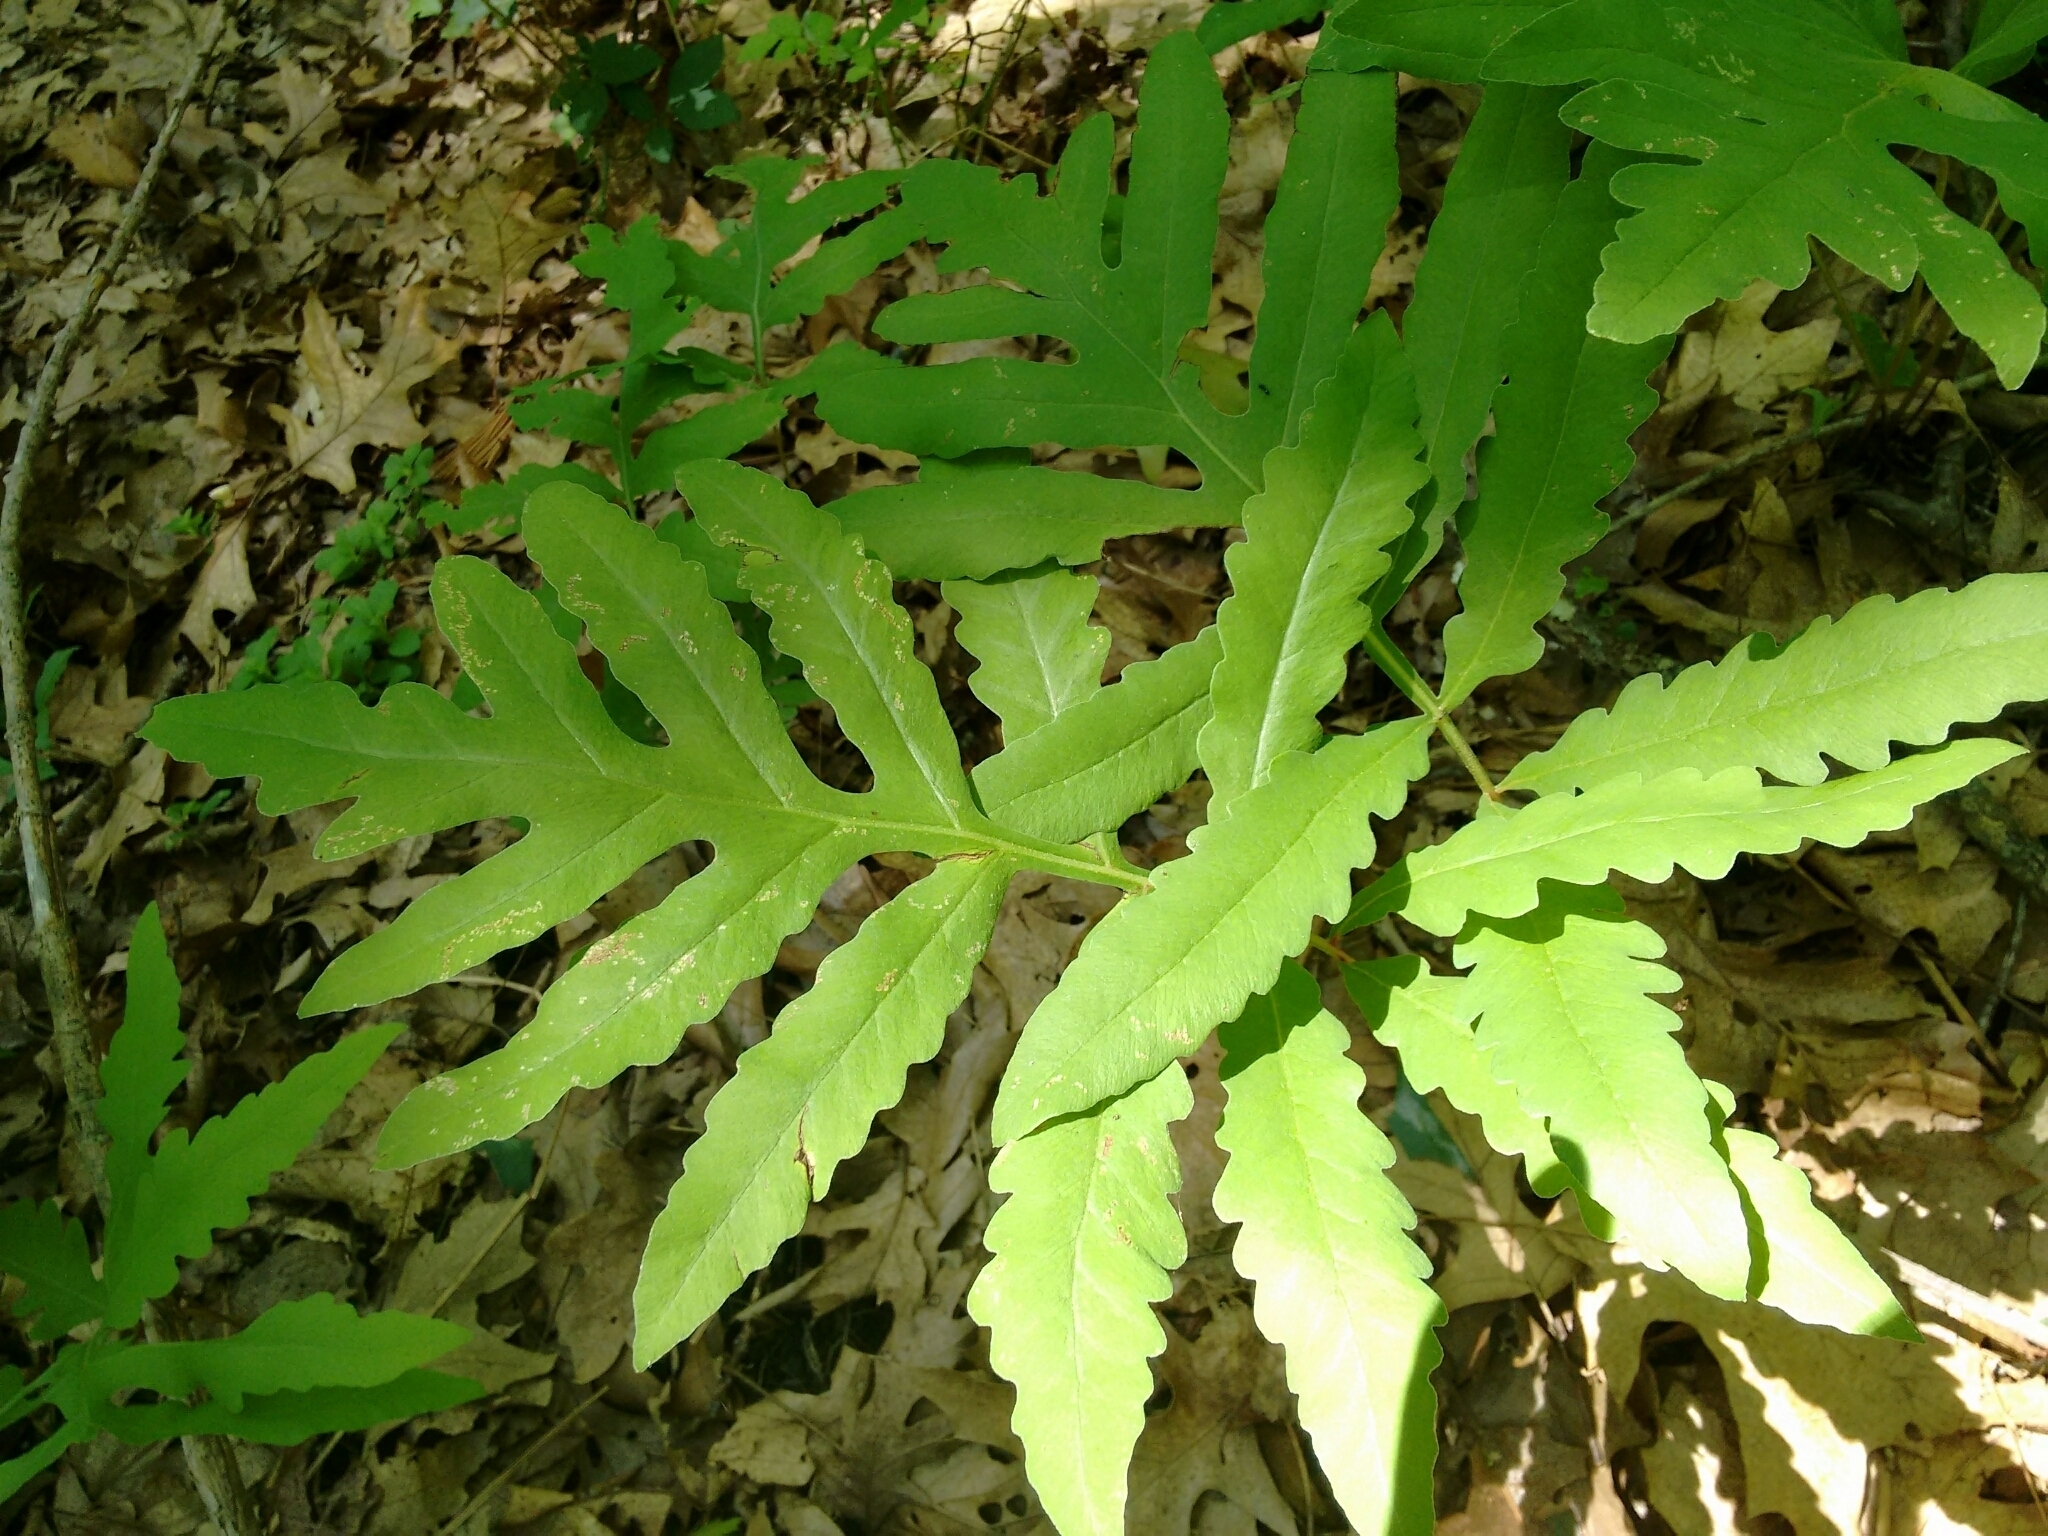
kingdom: Plantae
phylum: Tracheophyta
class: Polypodiopsida
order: Polypodiales
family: Onocleaceae
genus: Onoclea
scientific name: Onoclea sensibilis
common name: Sensitive fern
